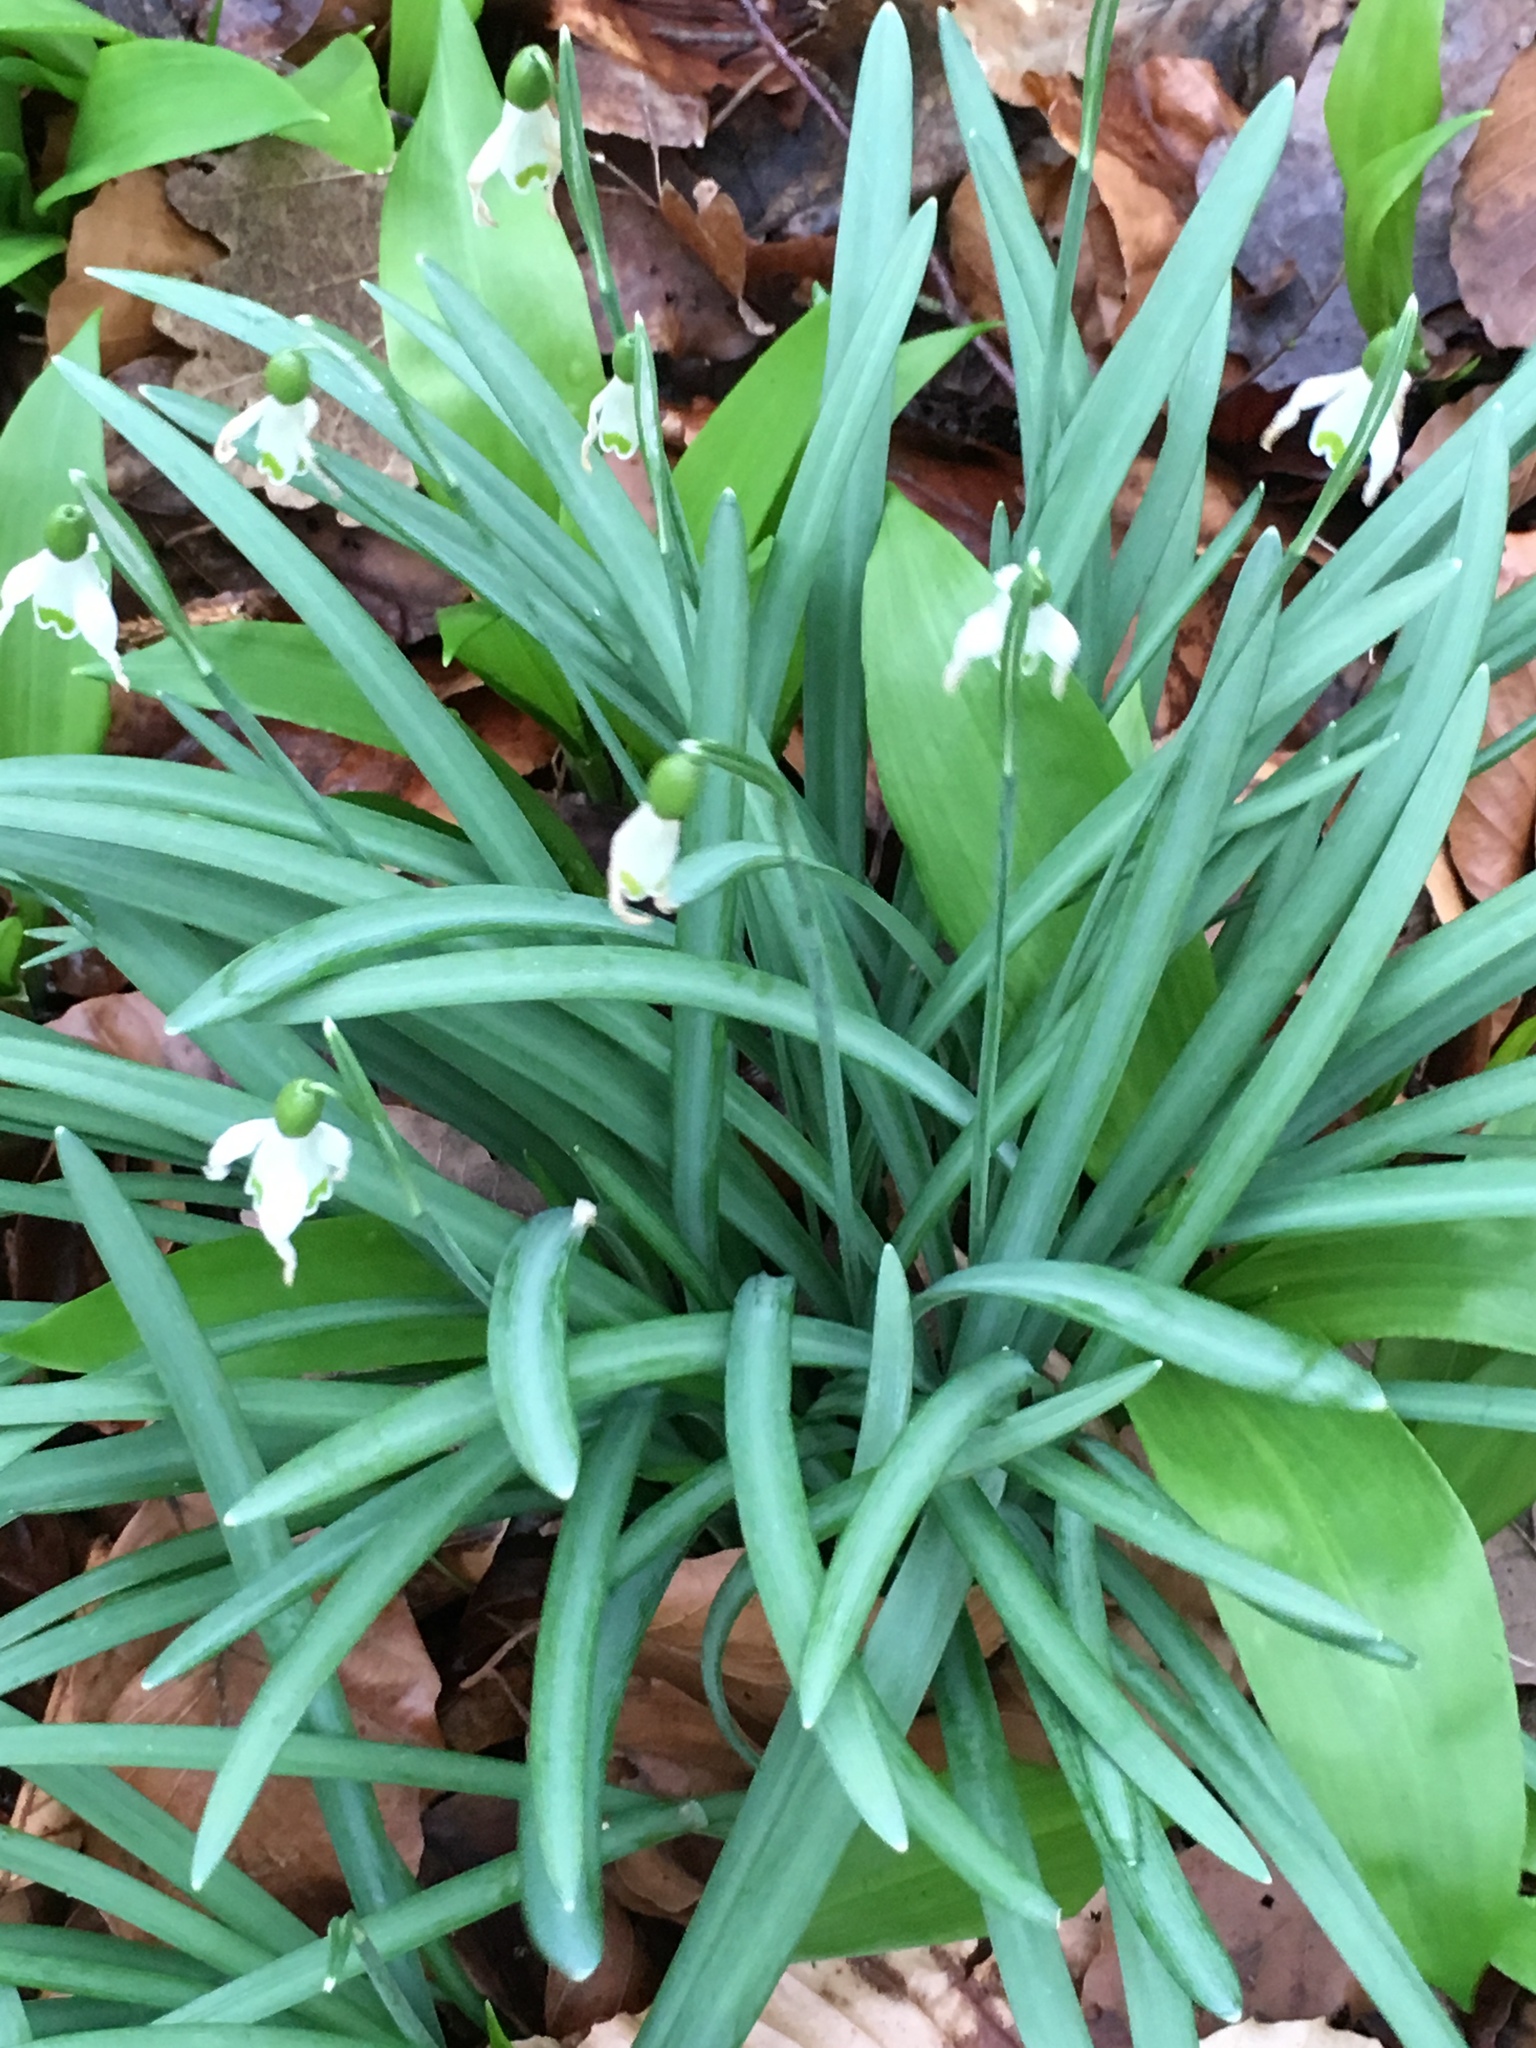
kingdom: Plantae
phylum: Tracheophyta
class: Liliopsida
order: Asparagales
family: Amaryllidaceae
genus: Galanthus
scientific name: Galanthus nivalis
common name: Snowdrop
